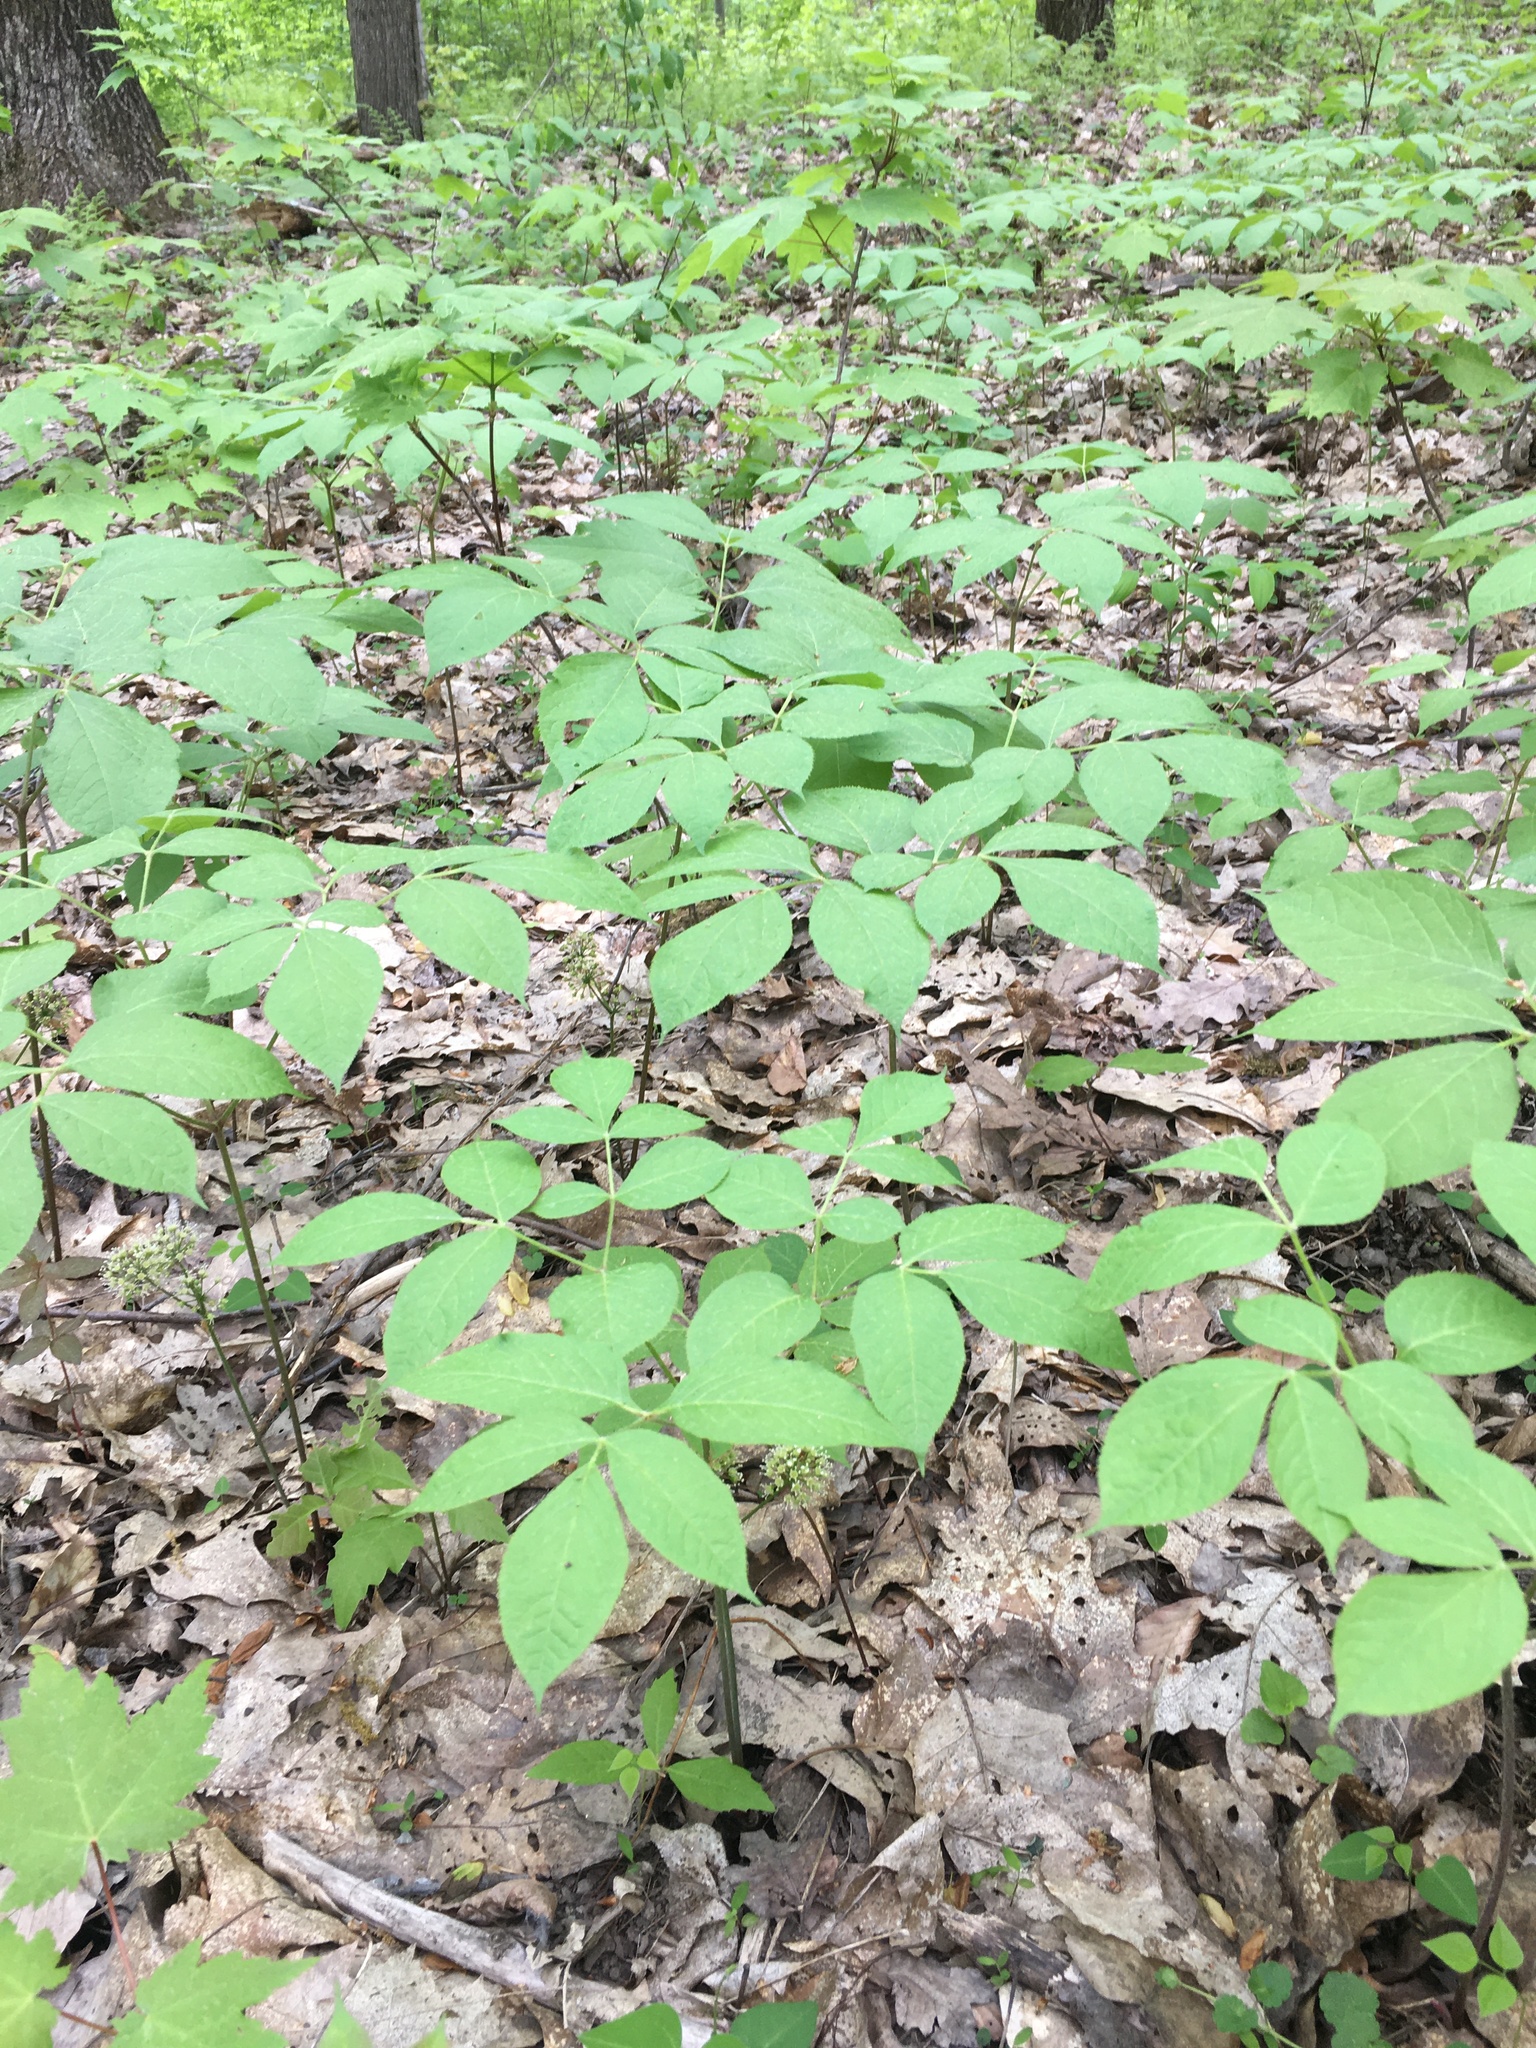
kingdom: Plantae
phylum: Tracheophyta
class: Magnoliopsida
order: Apiales
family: Araliaceae
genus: Aralia
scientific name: Aralia nudicaulis
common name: Wild sarsaparilla
